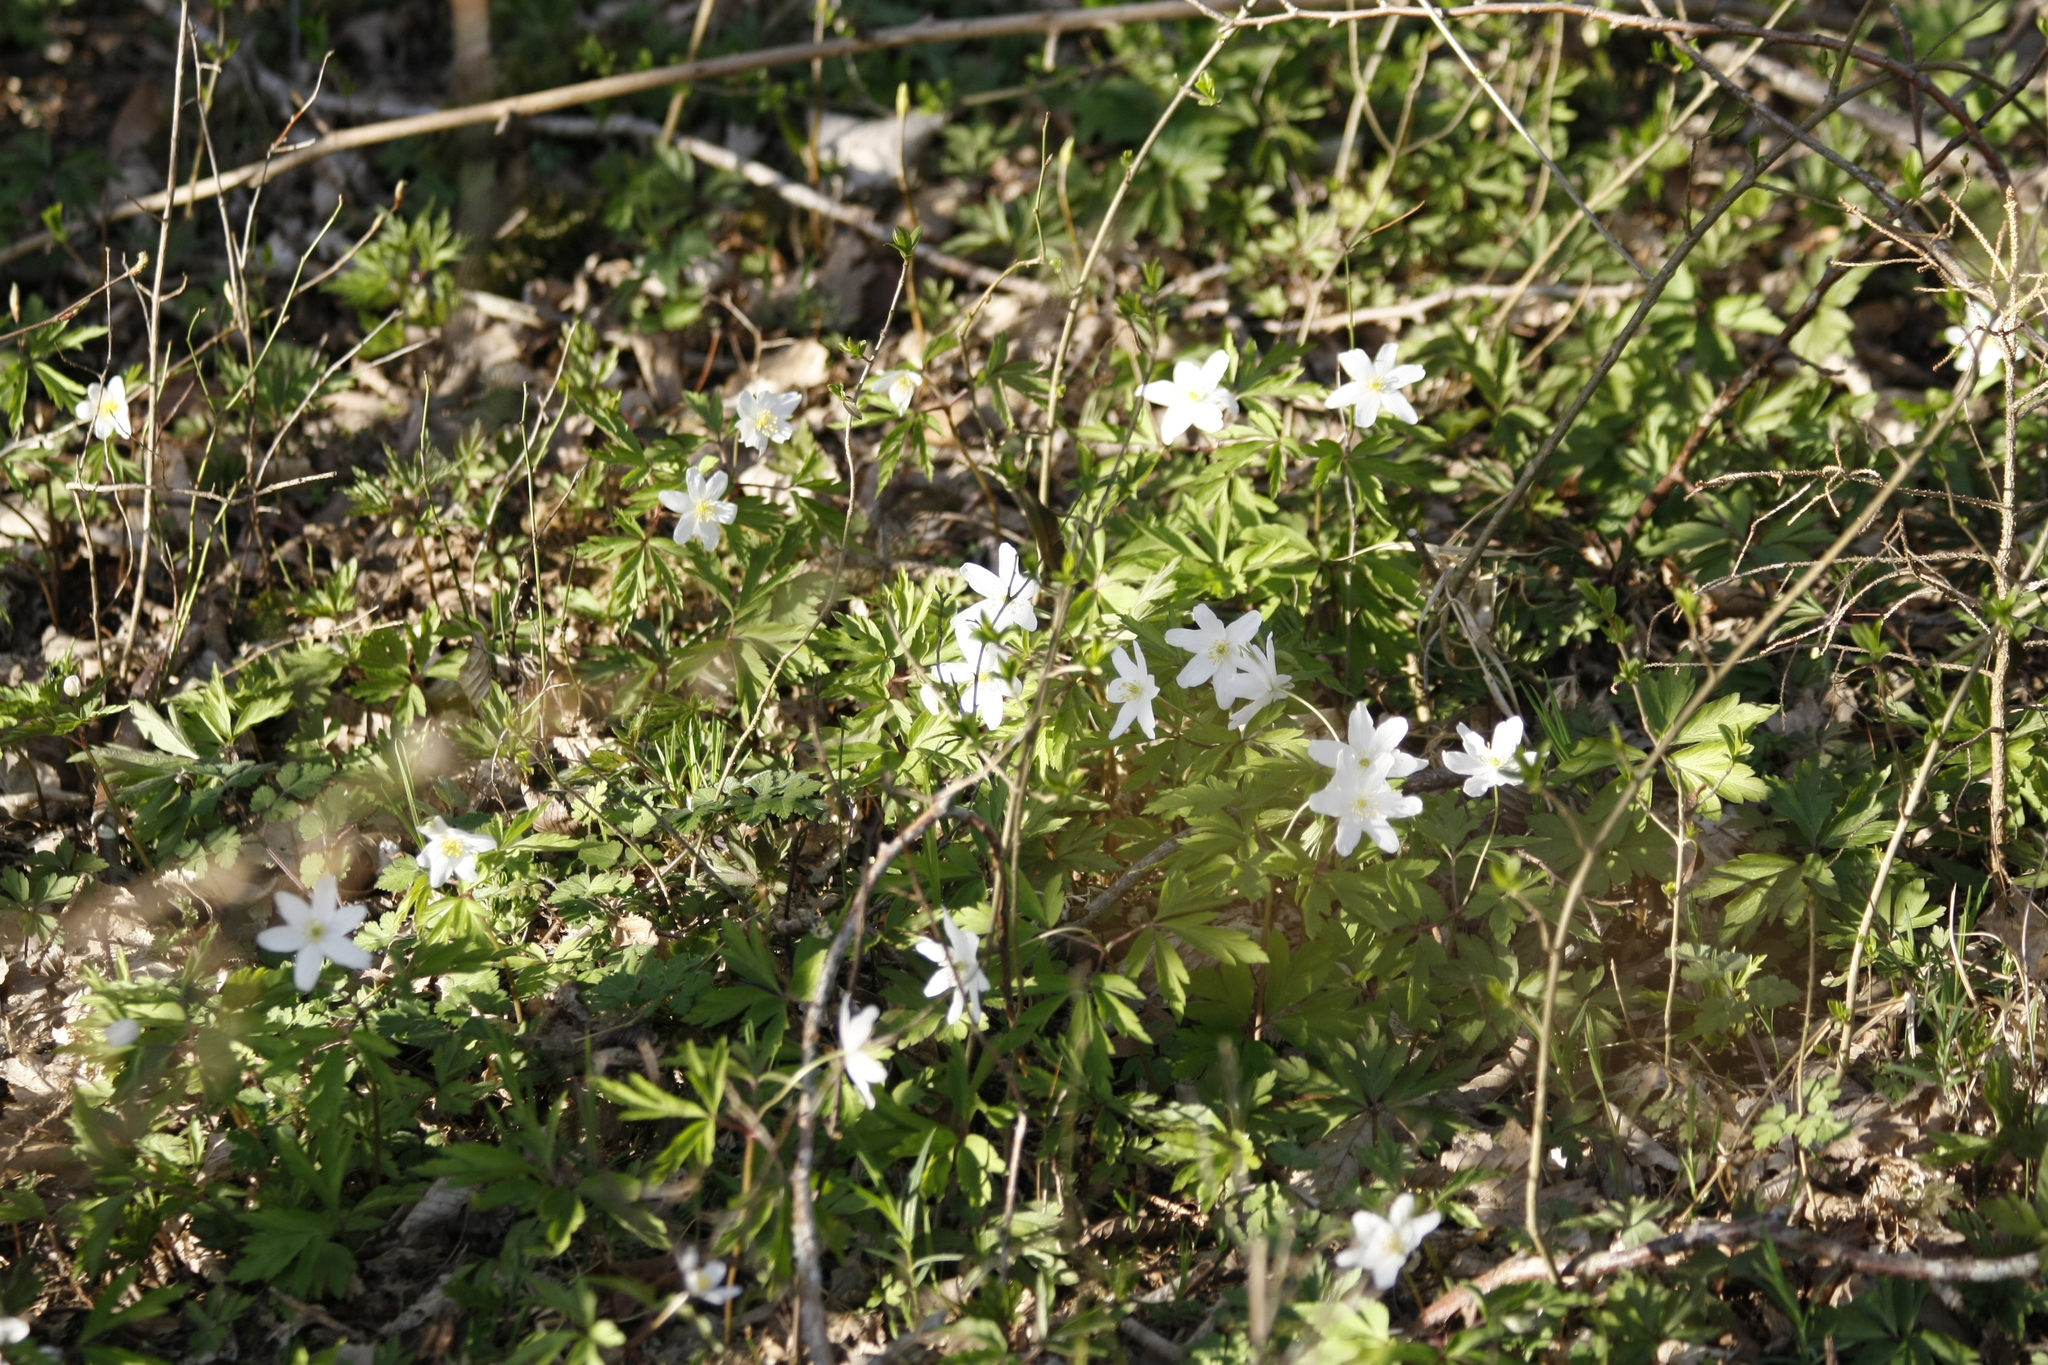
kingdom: Plantae
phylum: Tracheophyta
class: Magnoliopsida
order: Ranunculales
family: Ranunculaceae
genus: Anemone
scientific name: Anemone nemorosa
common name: Wood anemone
